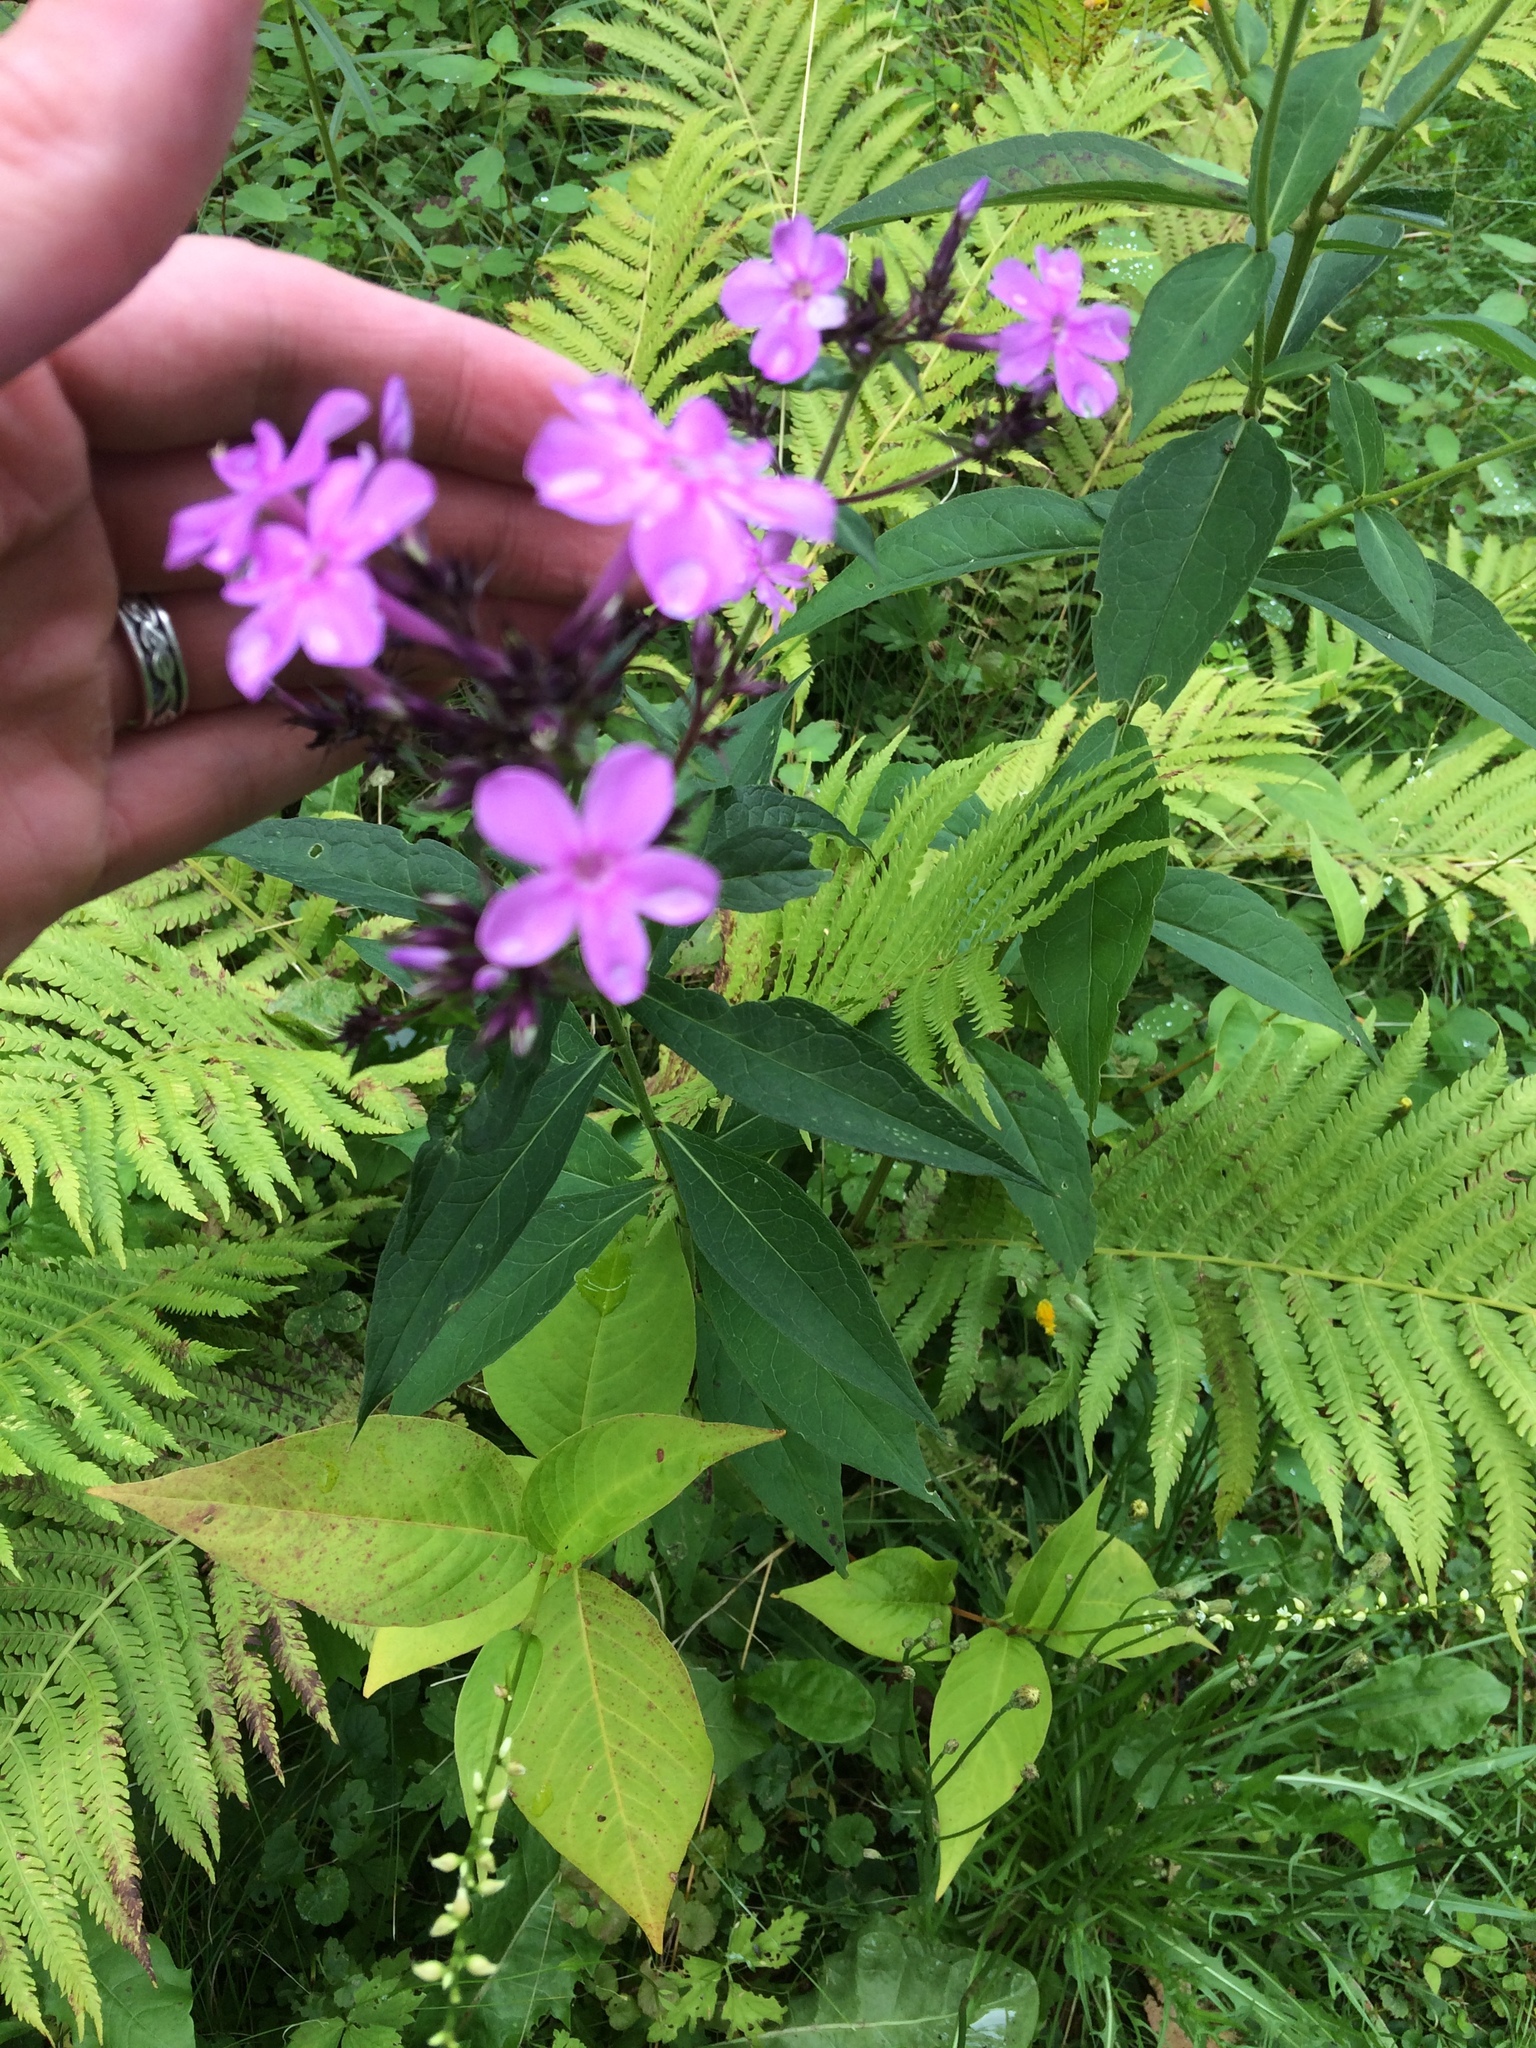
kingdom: Plantae
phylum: Tracheophyta
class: Magnoliopsida
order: Ericales
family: Polemoniaceae
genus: Phlox
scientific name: Phlox paniculata
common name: Fall phlox
